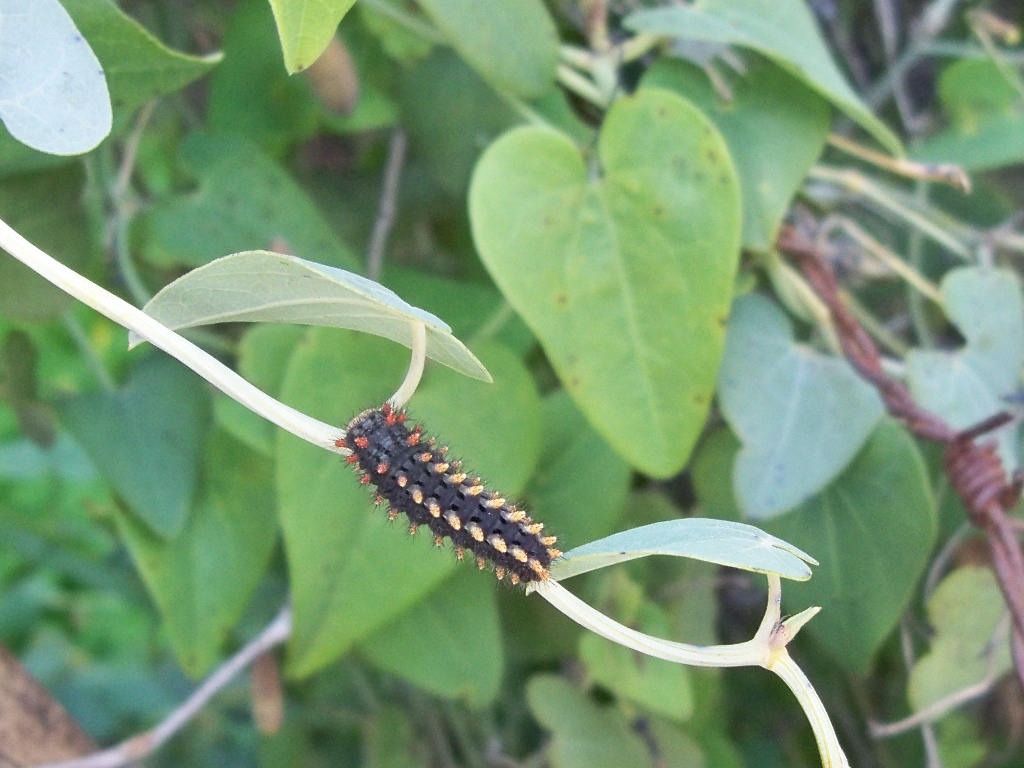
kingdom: Animalia
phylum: Arthropoda
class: Insecta
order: Lepidoptera
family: Papilionidae
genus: Zerynthia
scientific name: Zerynthia rumina
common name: Spanish festoon
